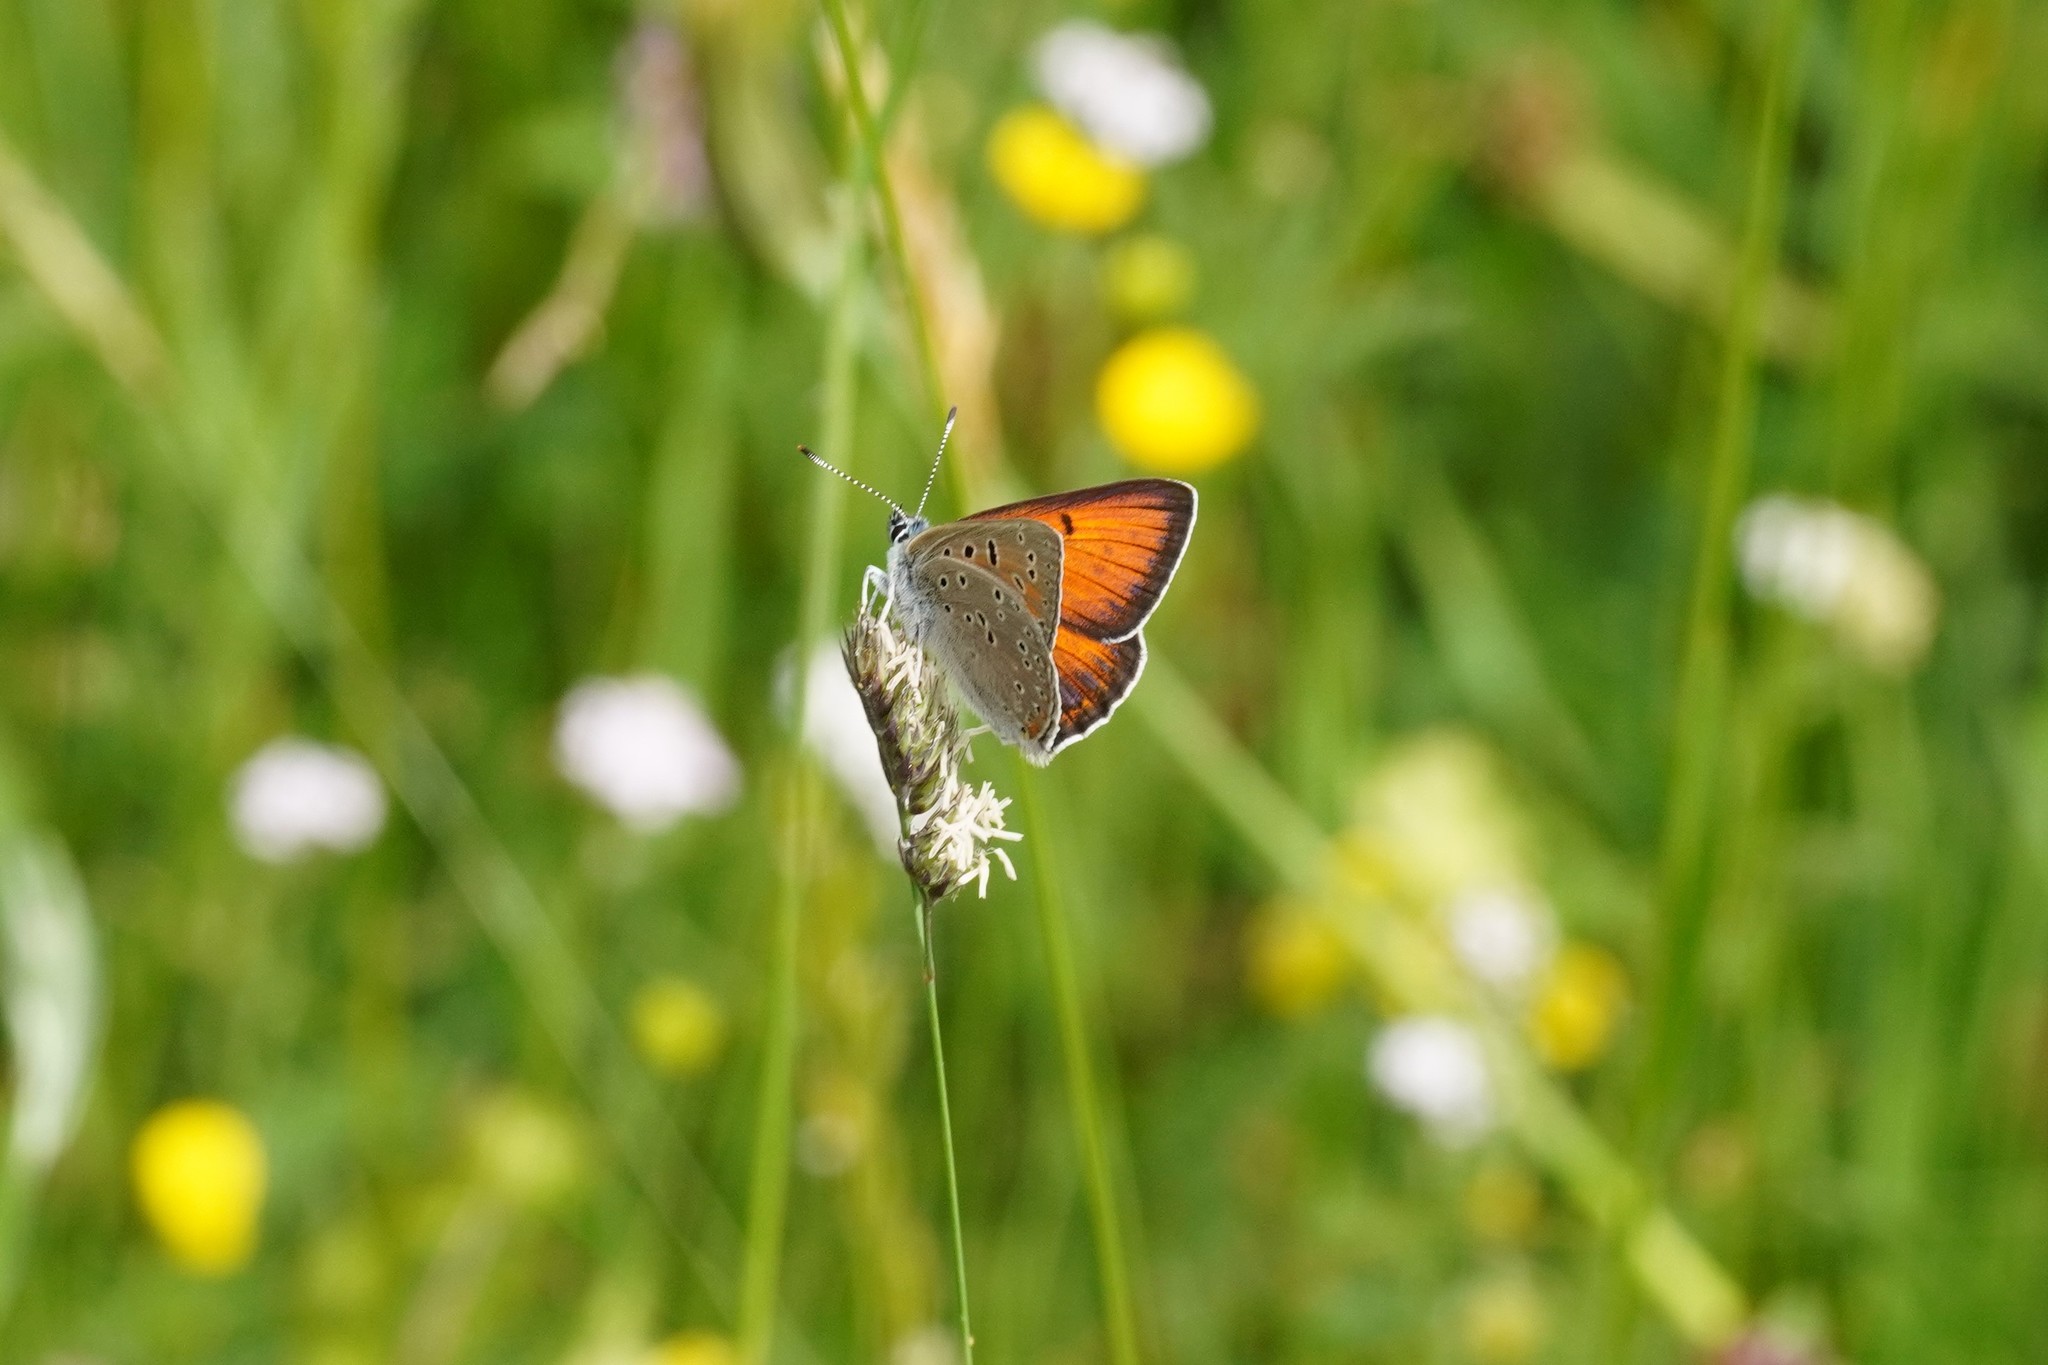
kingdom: Animalia
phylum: Arthropoda
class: Insecta
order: Lepidoptera
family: Lycaenidae
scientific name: Lycaenidae
